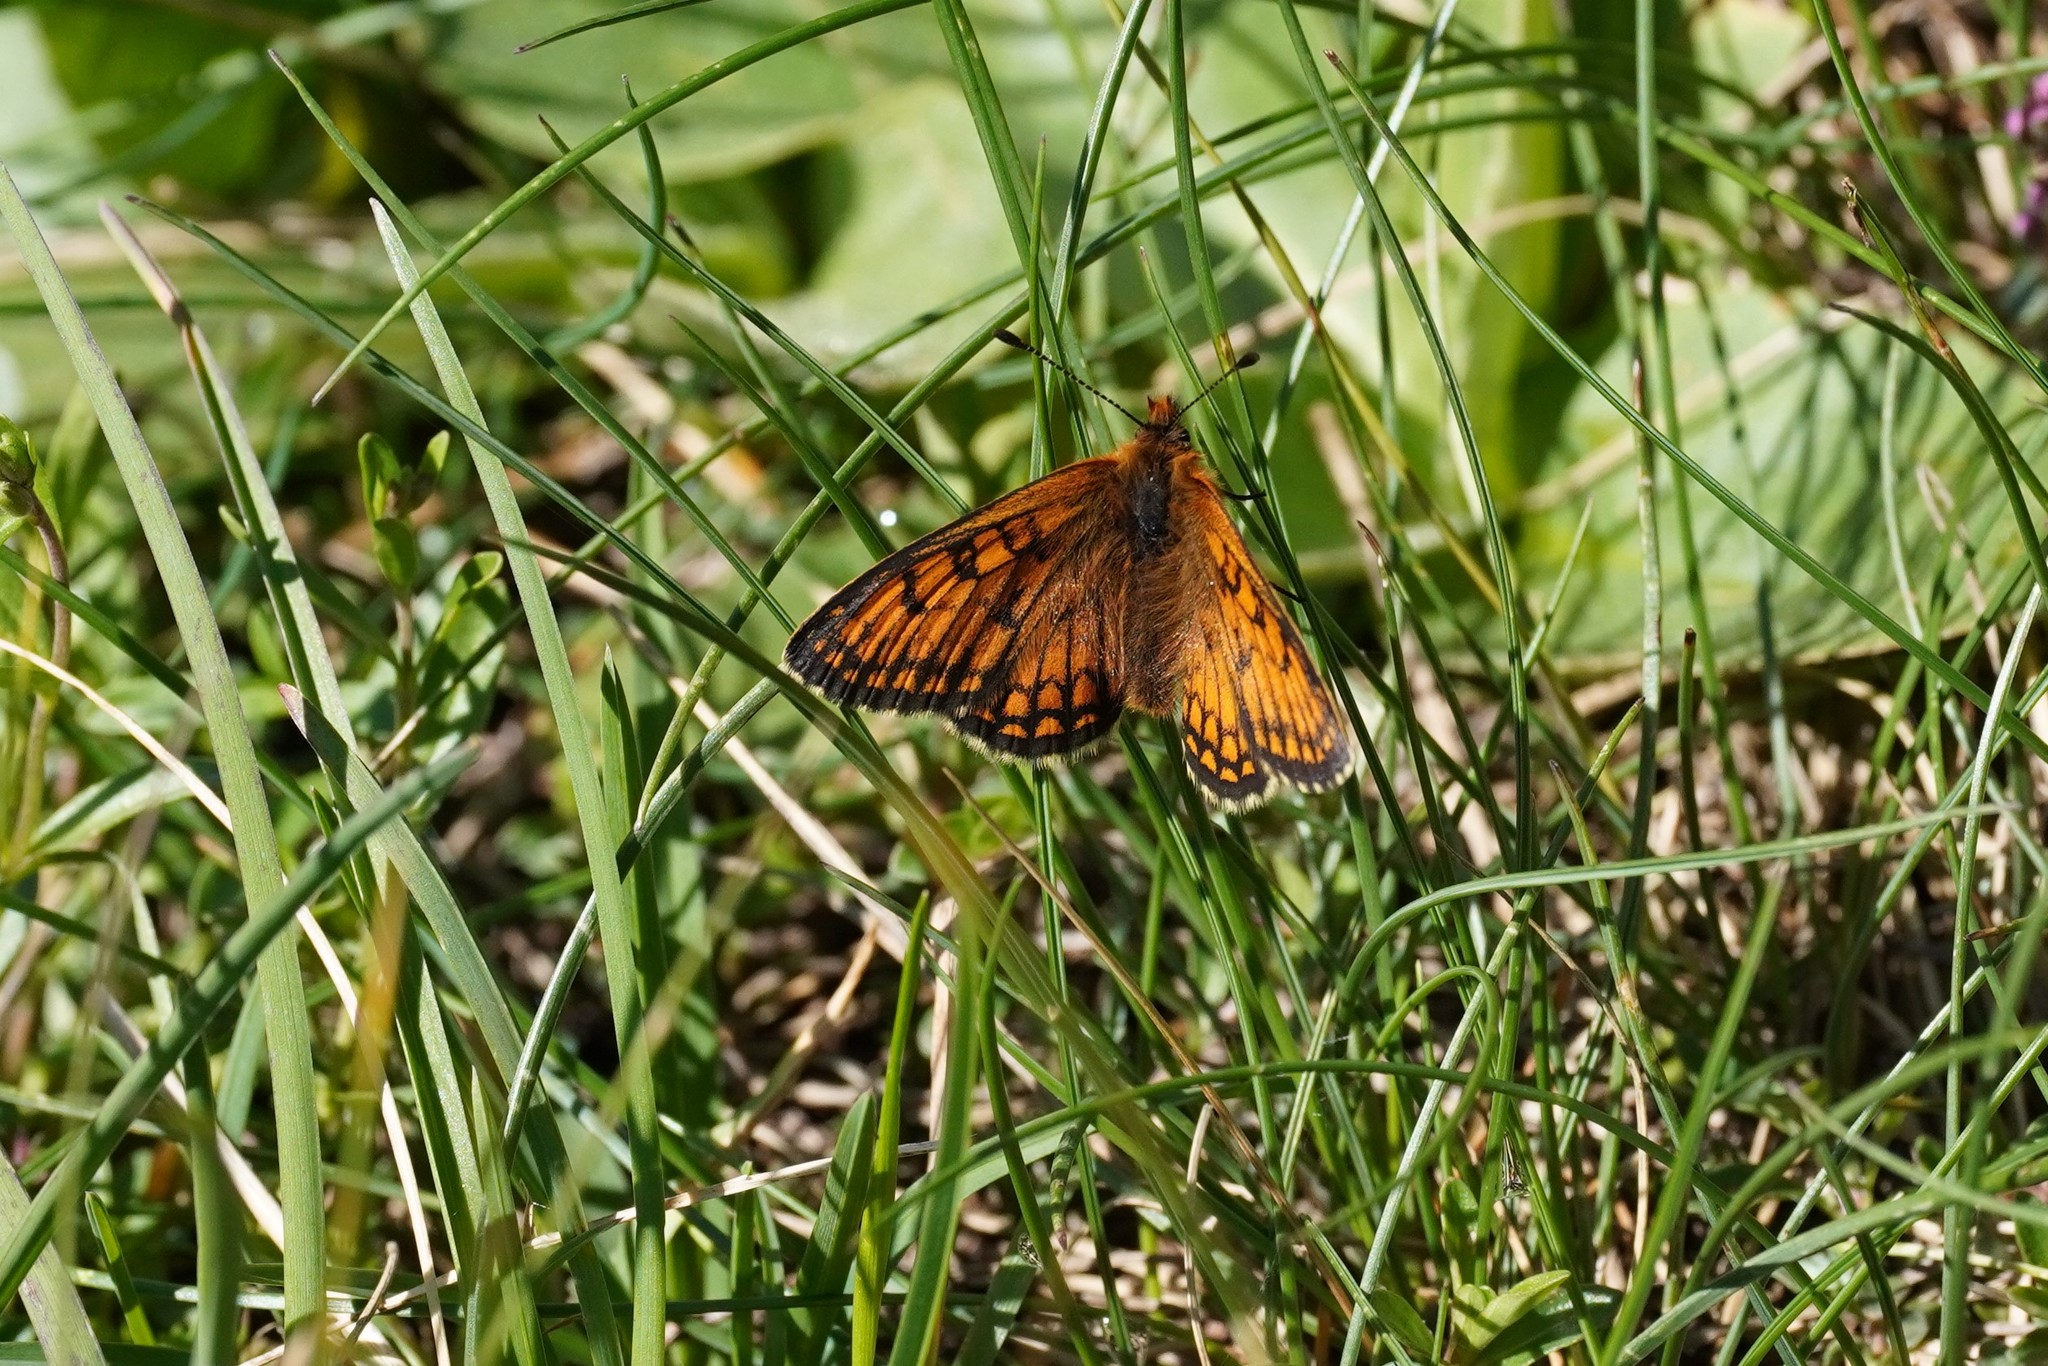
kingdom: Animalia
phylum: Arthropoda
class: Insecta
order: Lepidoptera
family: Nymphalidae
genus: Melitaea
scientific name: Melitaea varia
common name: Grisons fritillary
